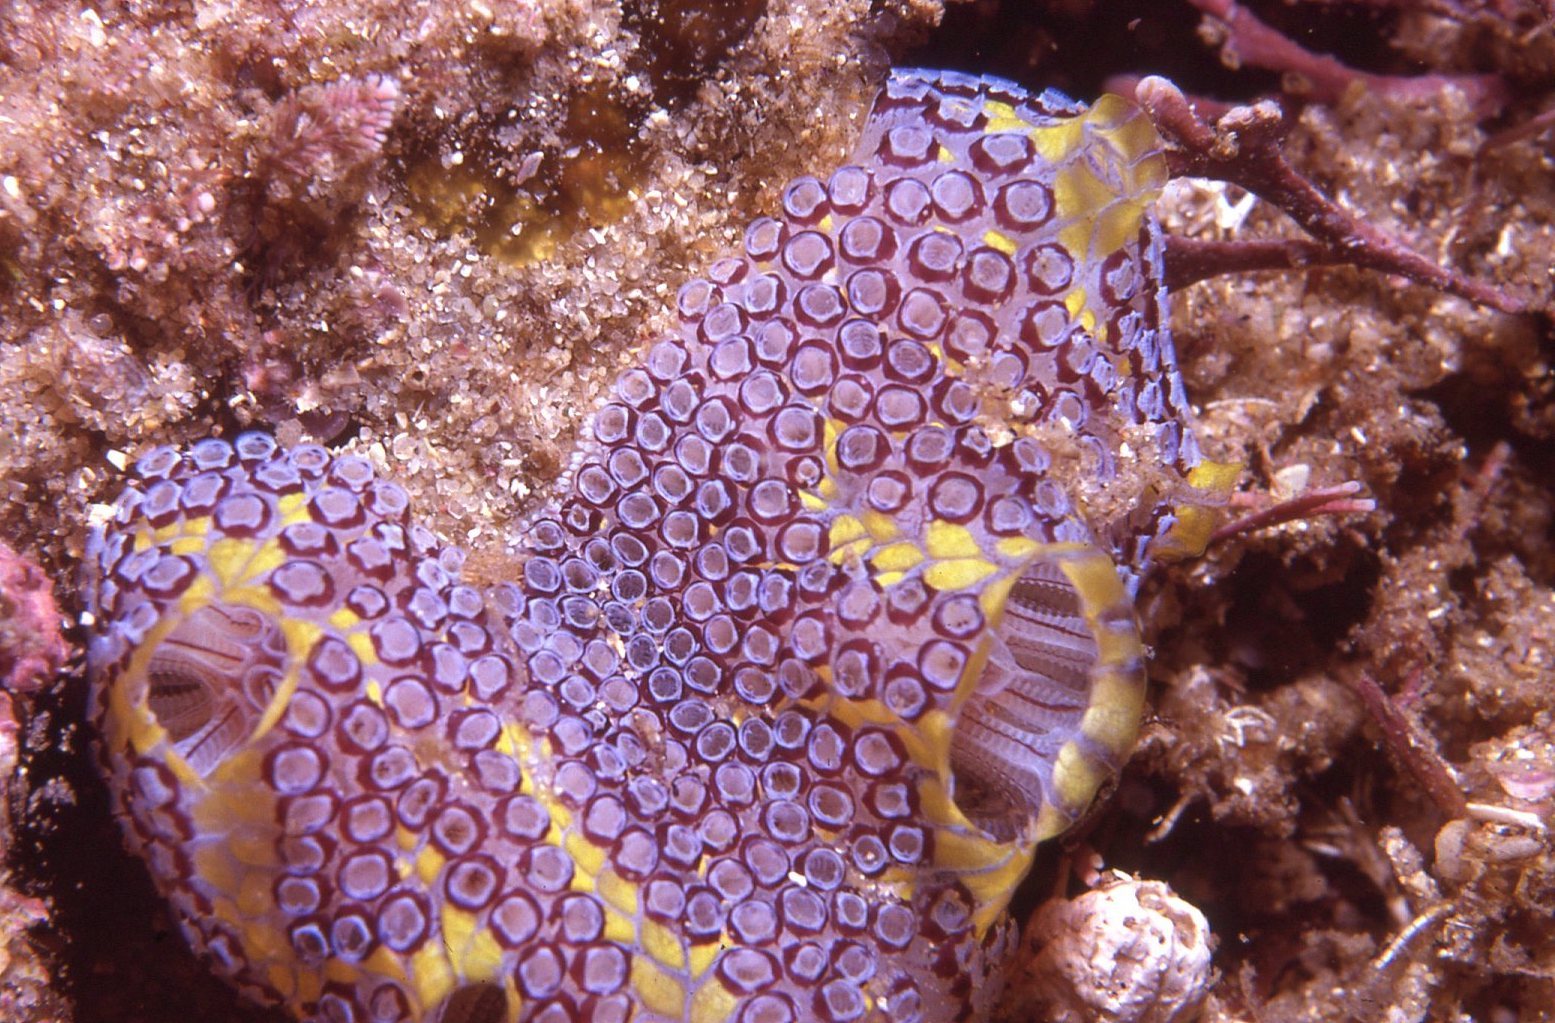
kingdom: Animalia
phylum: Chordata
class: Ascidiacea
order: Stolidobranchia
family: Styelidae
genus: Botrylloides
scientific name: Botrylloides magnicoecus
